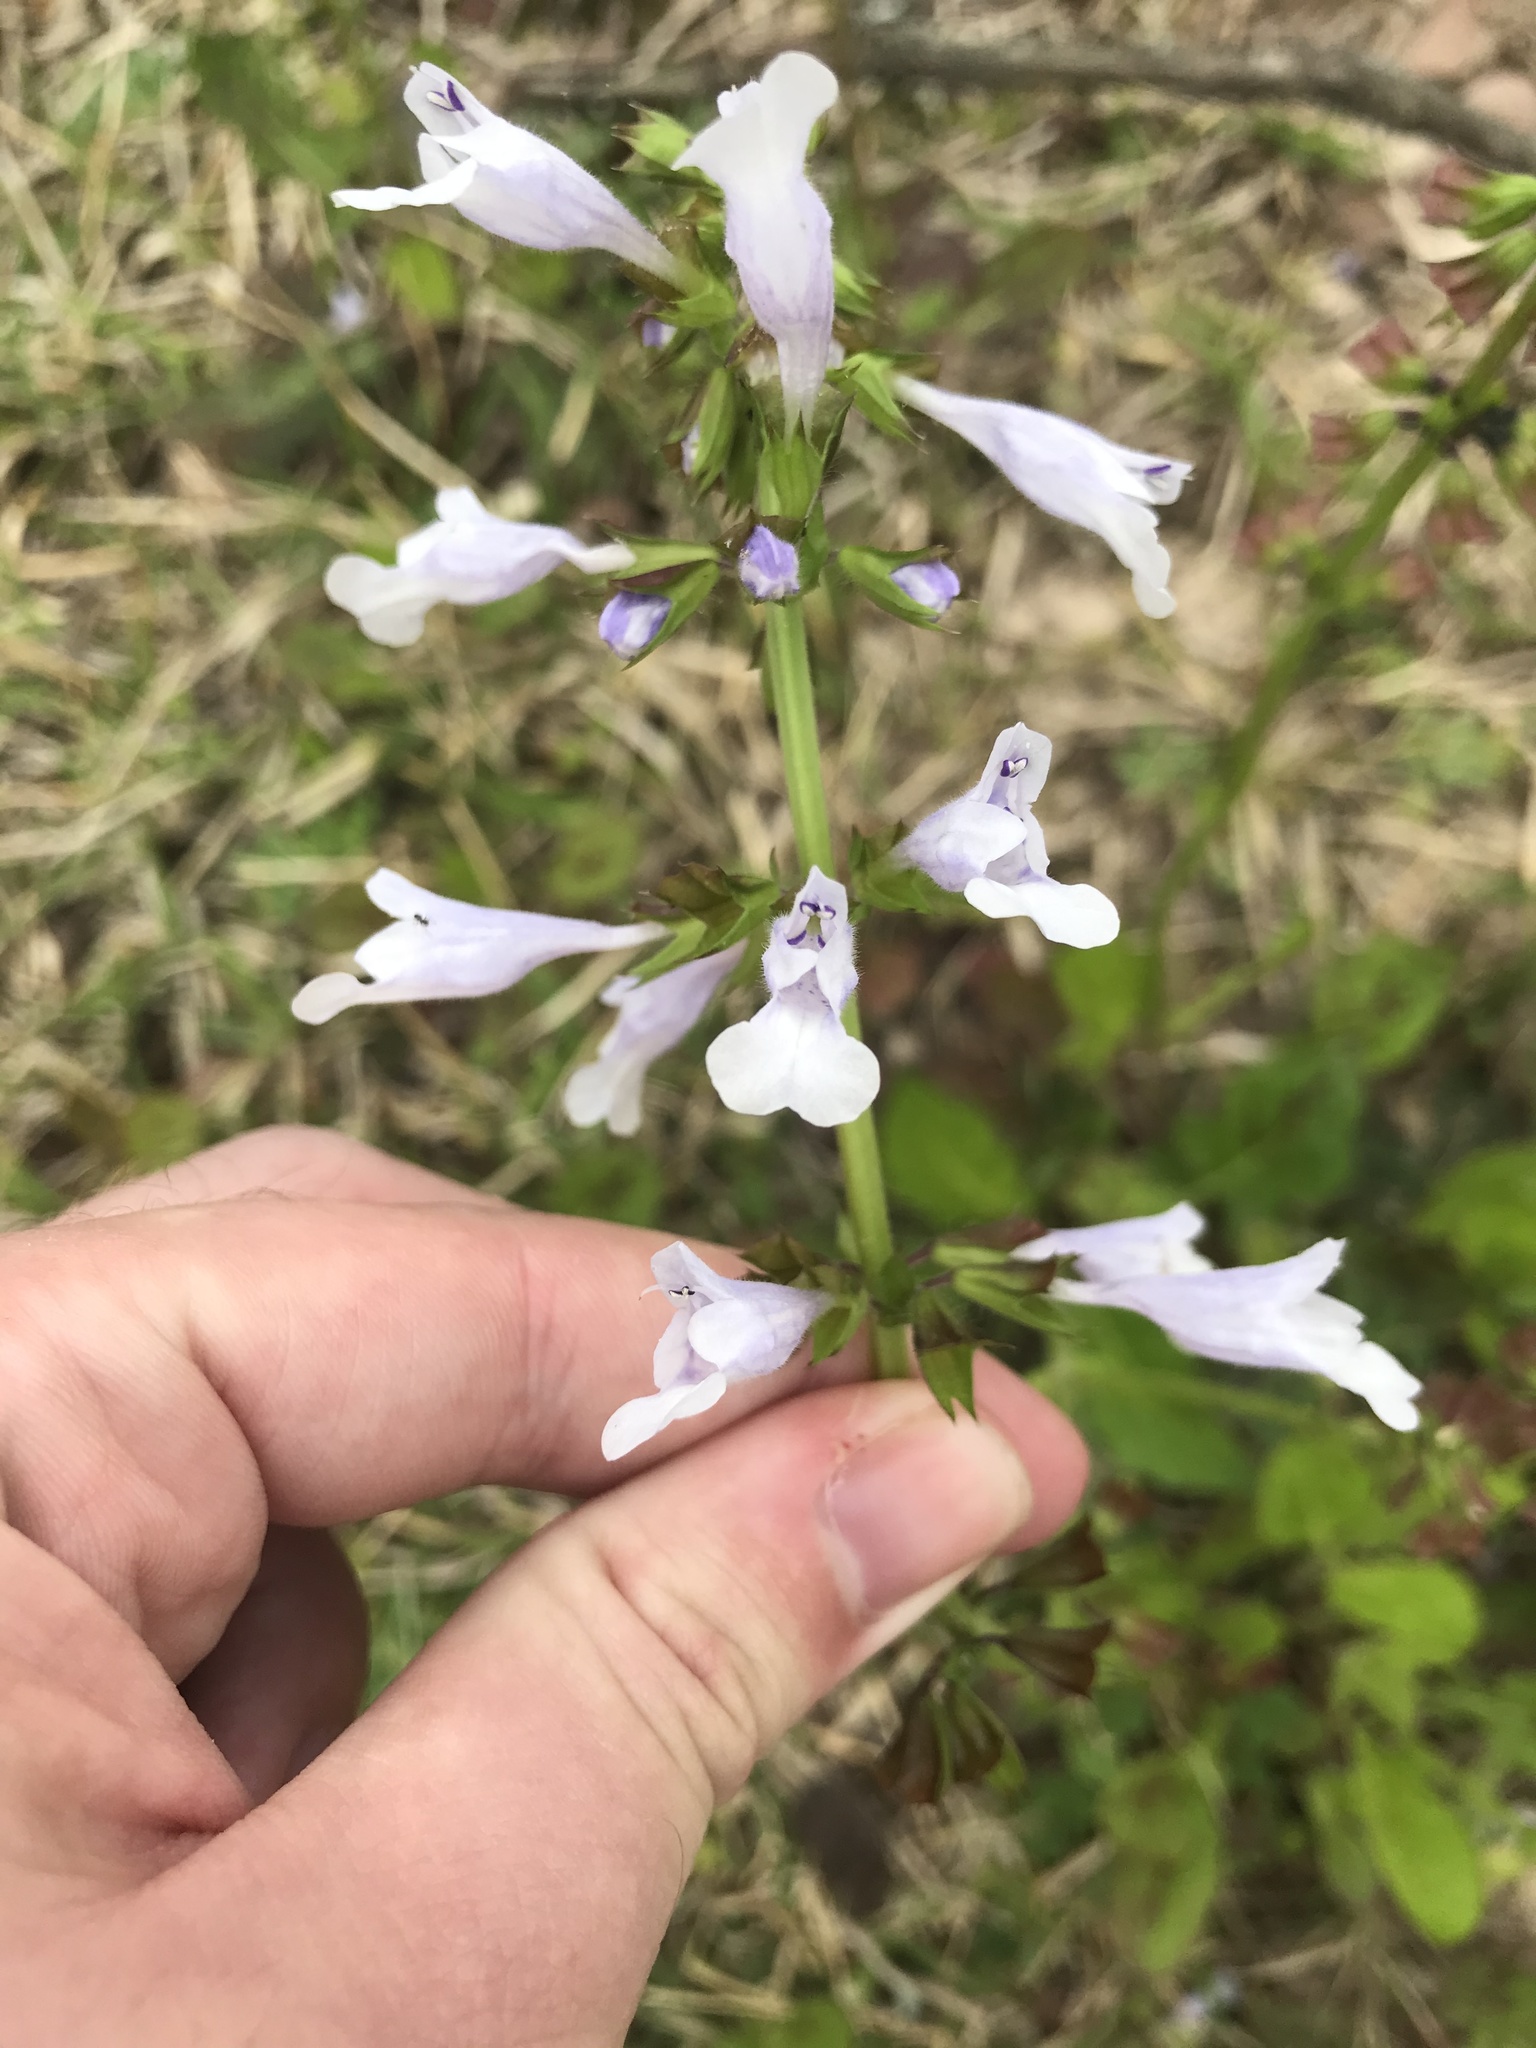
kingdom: Plantae
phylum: Tracheophyta
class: Magnoliopsida
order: Lamiales
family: Lamiaceae
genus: Salvia
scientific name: Salvia lyrata
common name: Cancerweed
